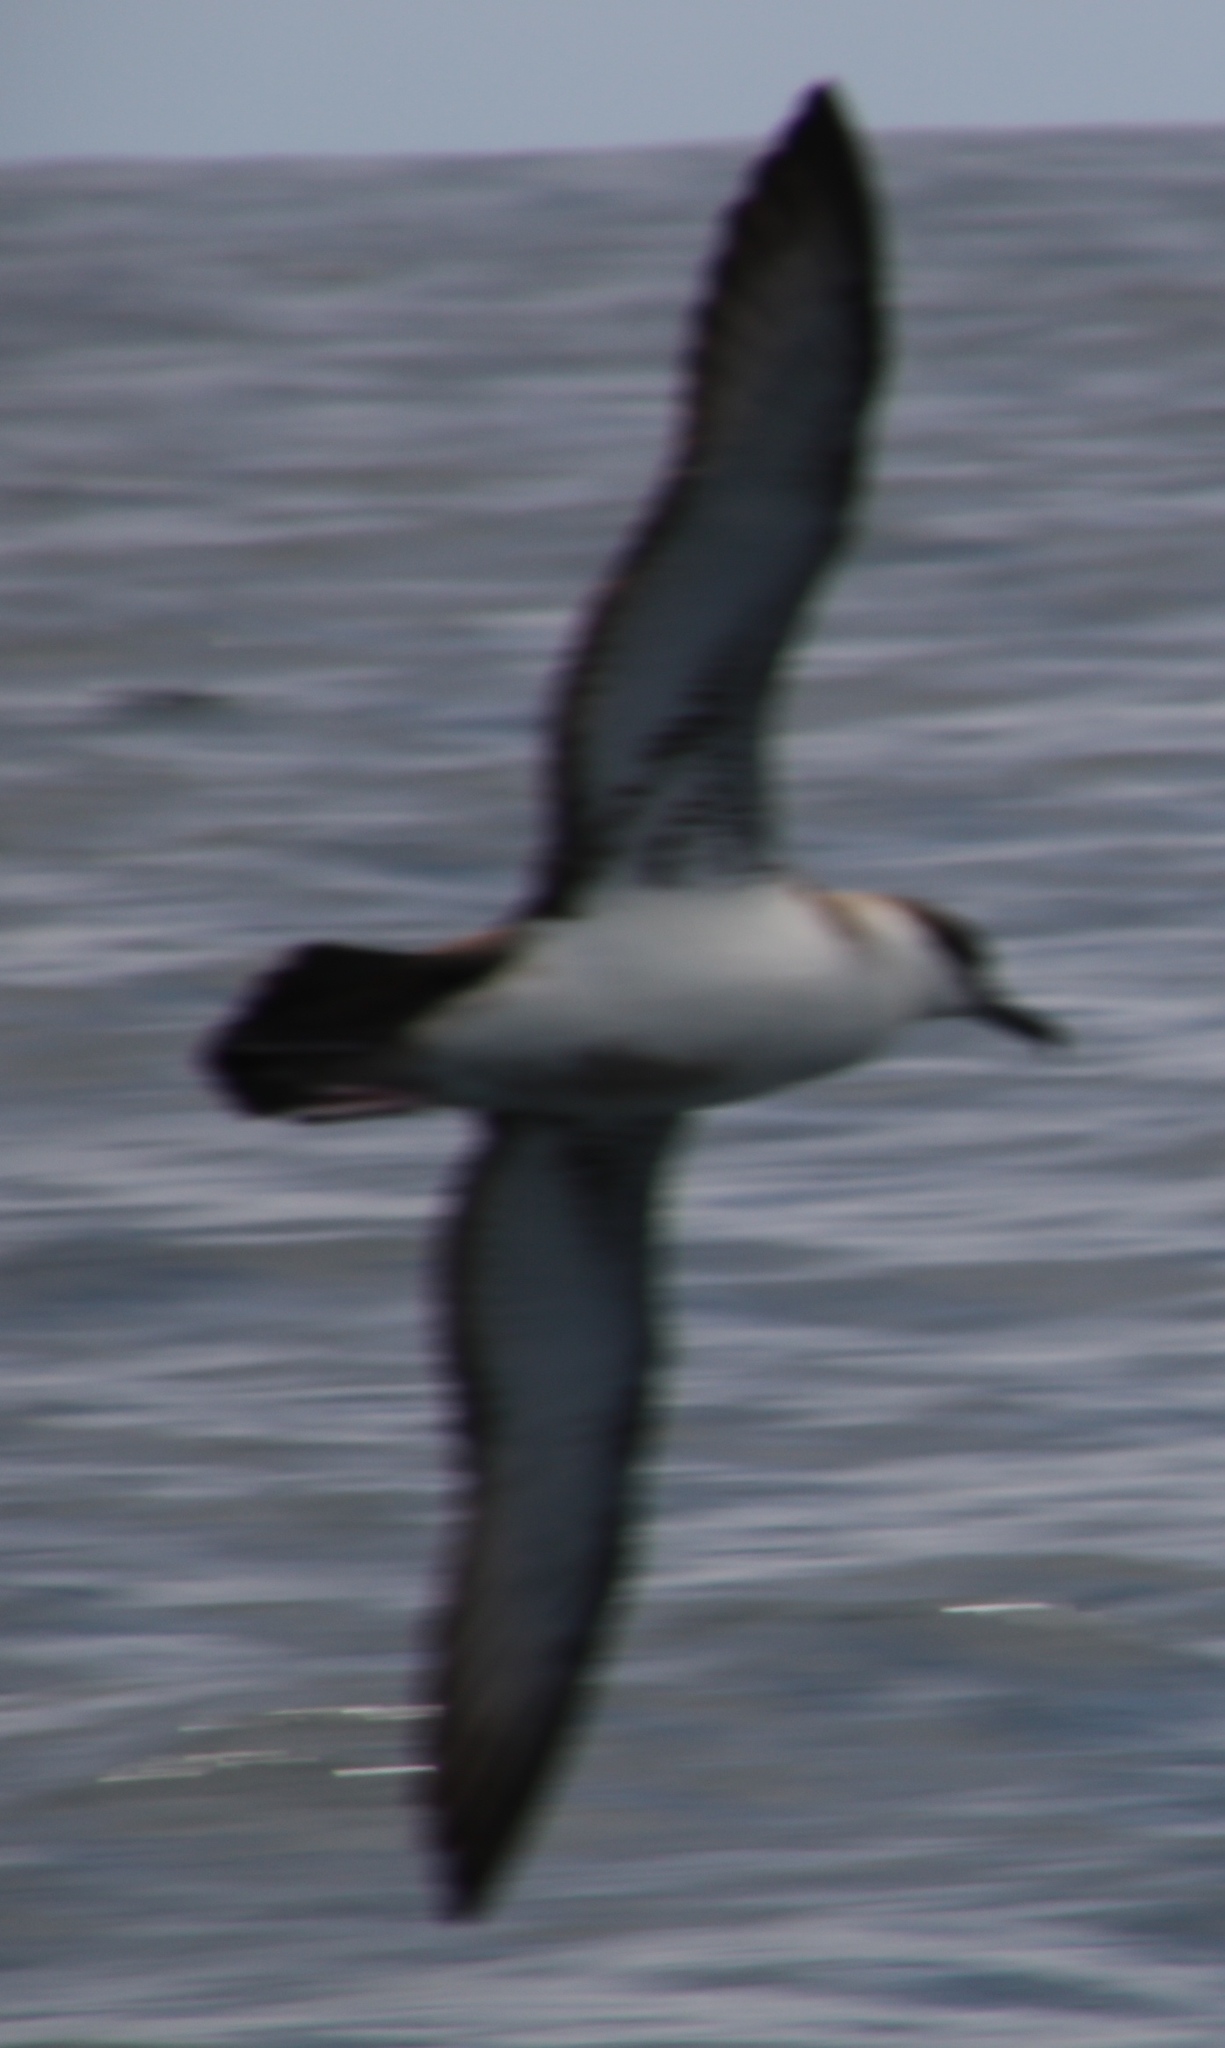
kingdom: Animalia
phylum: Chordata
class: Aves
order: Procellariiformes
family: Procellariidae
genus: Puffinus
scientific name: Puffinus gravis
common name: Great shearwater
